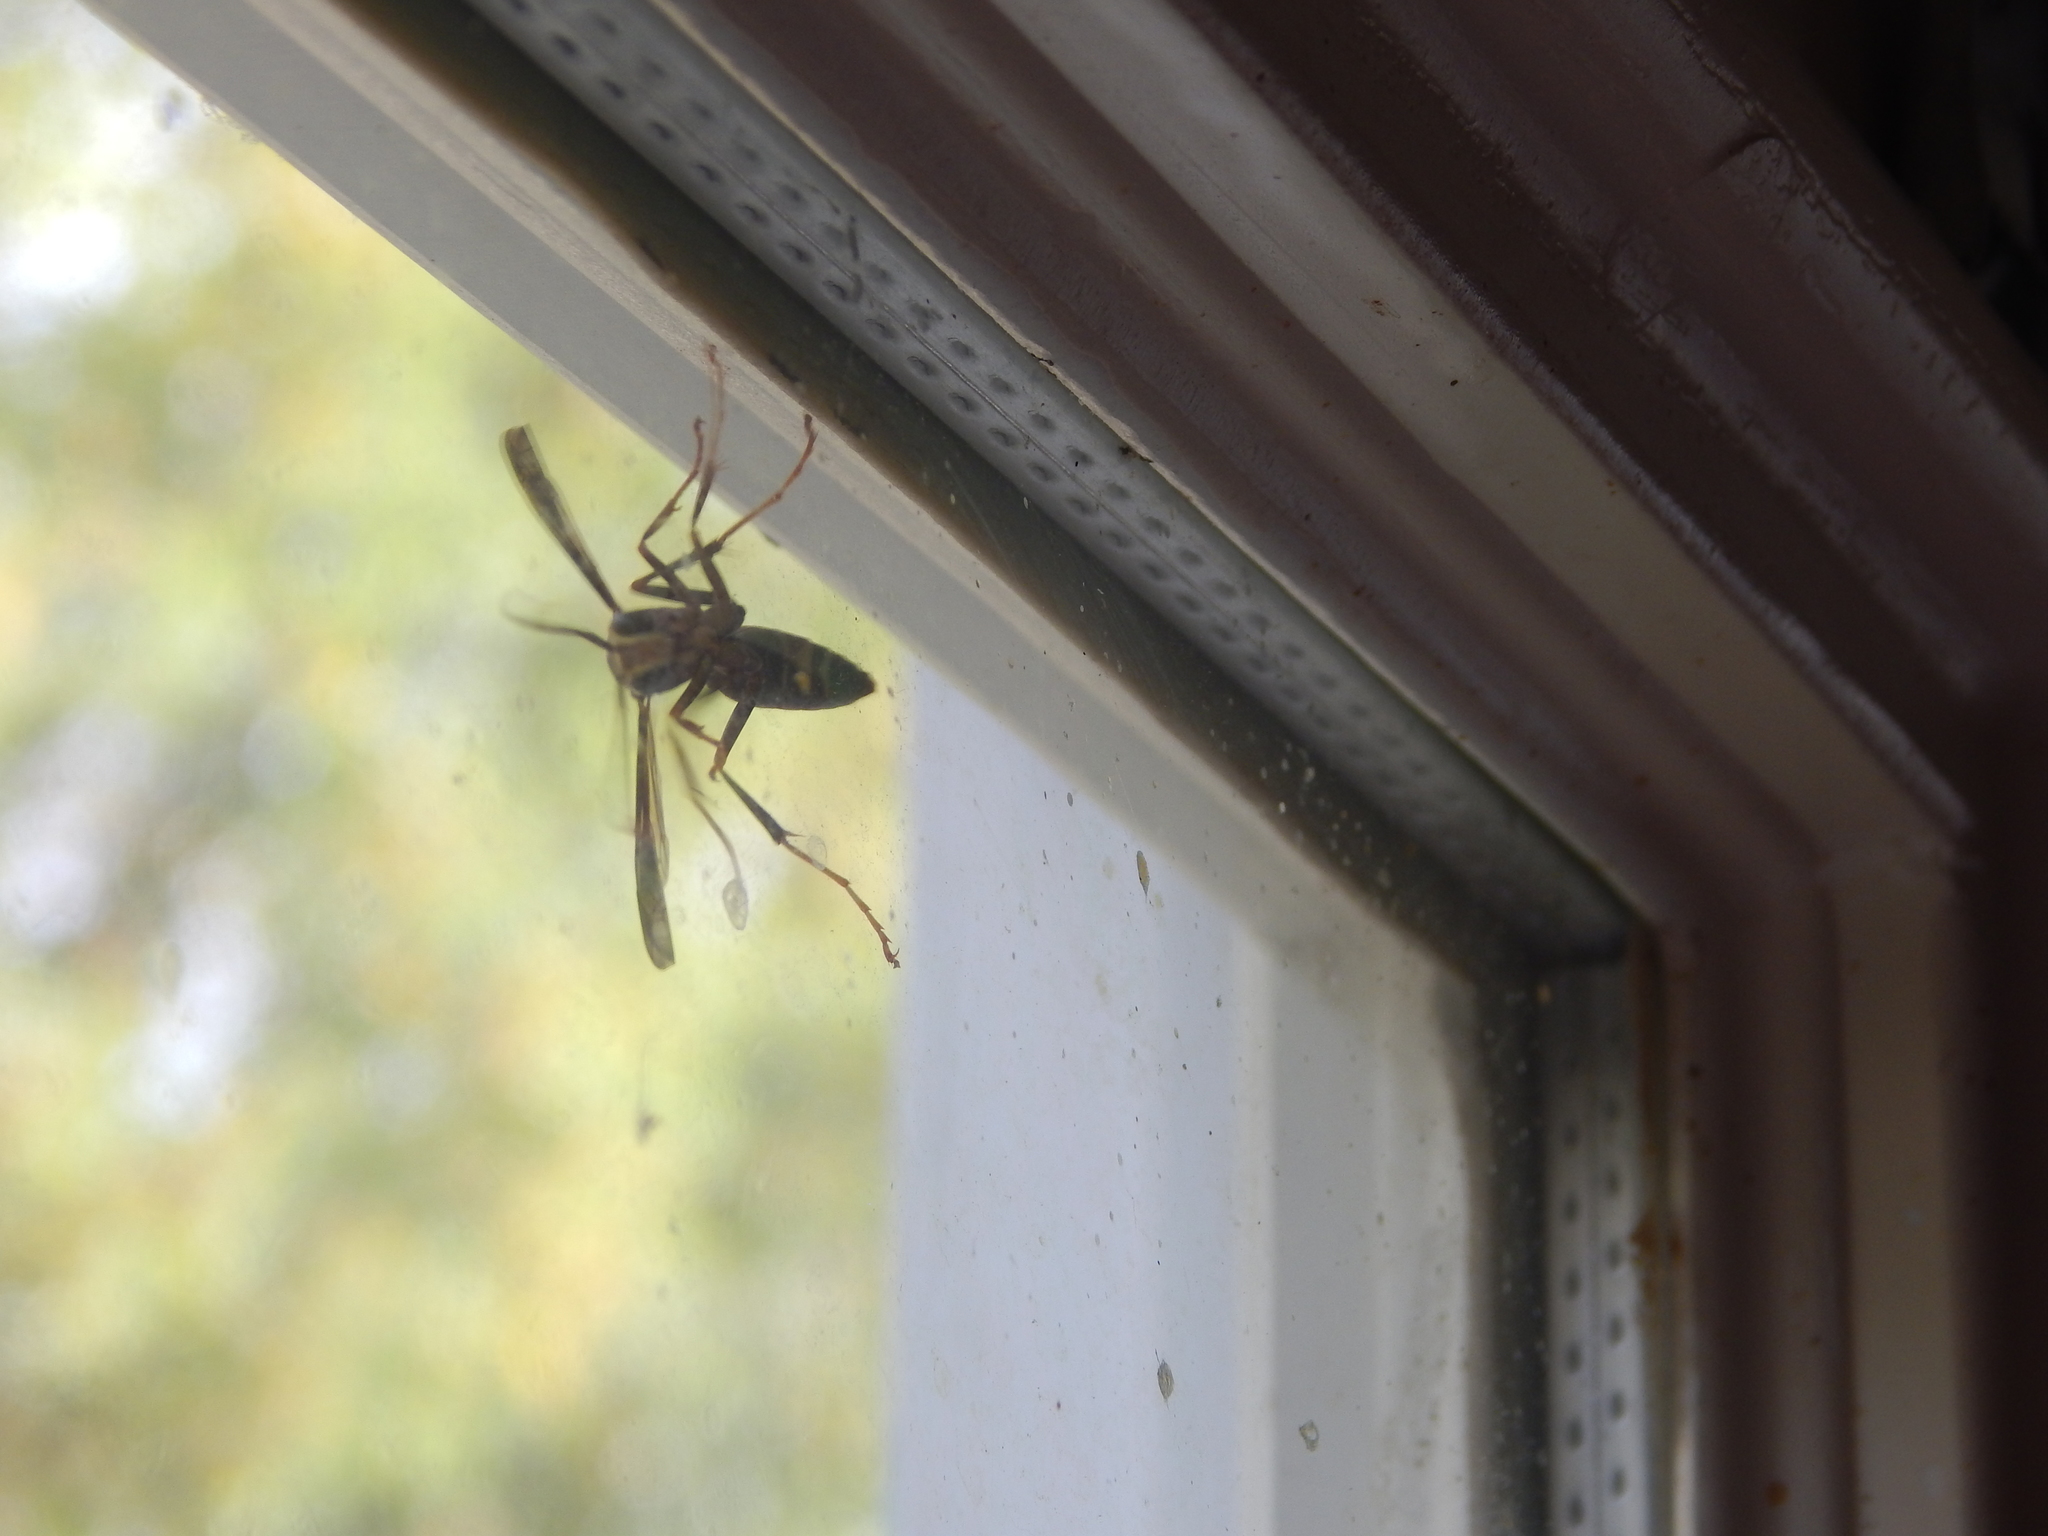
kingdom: Animalia
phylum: Arthropoda
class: Insecta
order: Hymenoptera
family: Eumenidae
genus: Polistes
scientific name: Polistes fuscatus
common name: Dark paper wasp
